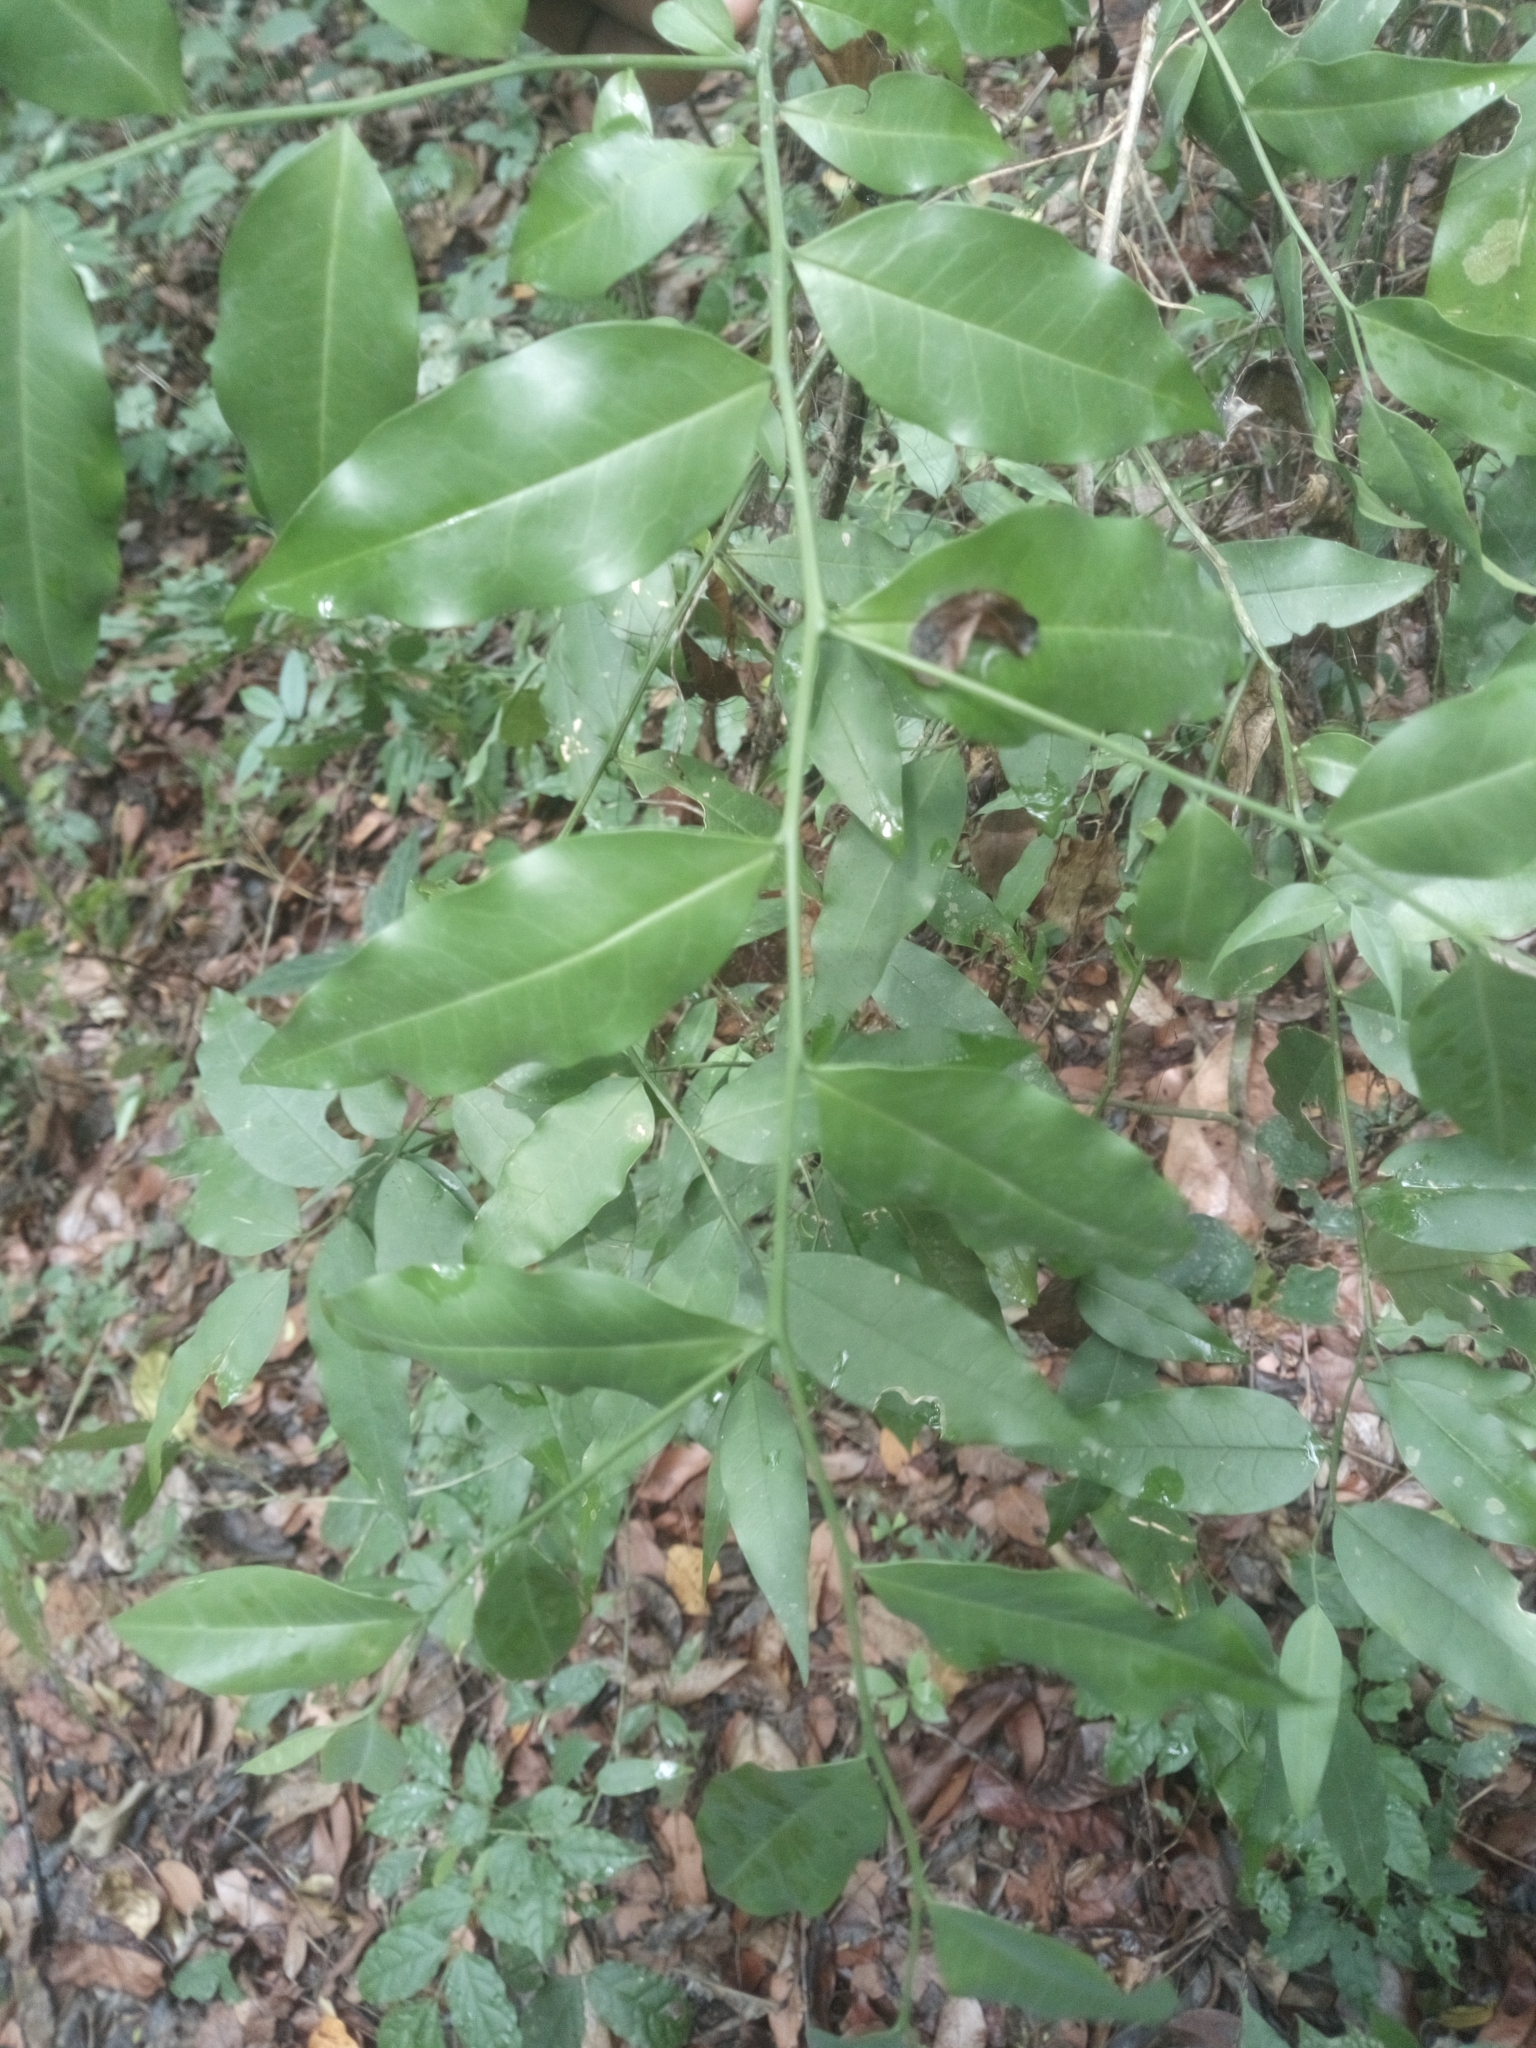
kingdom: Plantae
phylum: Tracheophyta
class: Magnoliopsida
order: Santalales
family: Olacaceae
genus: Olax
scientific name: Olax subscorpioidea
